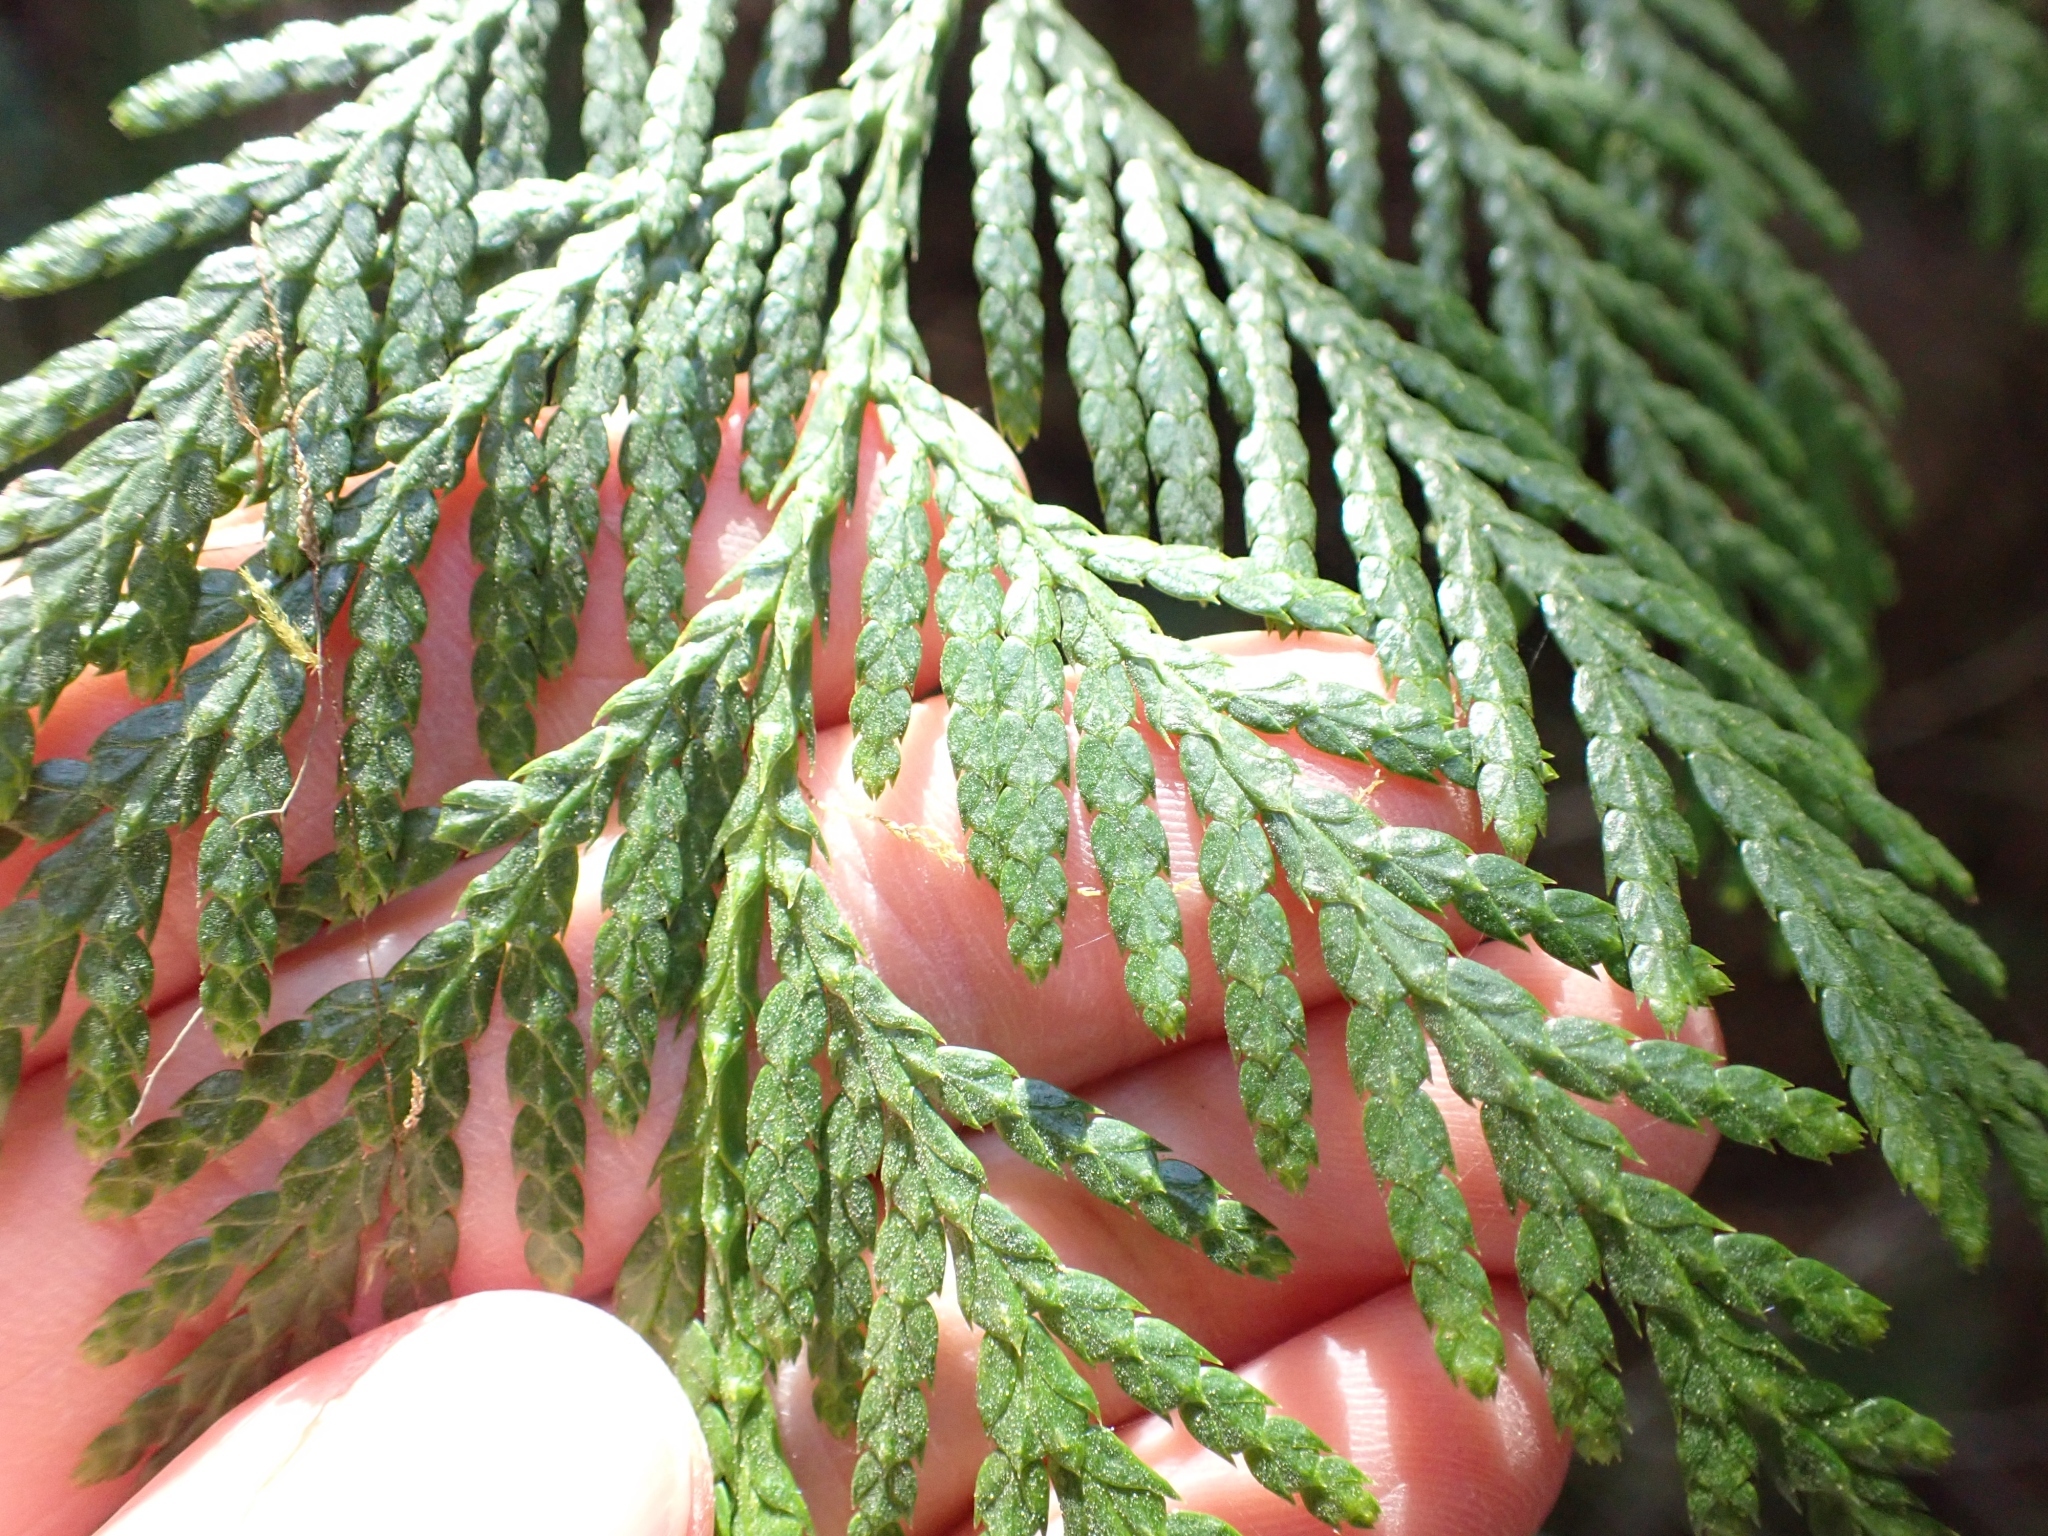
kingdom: Plantae
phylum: Tracheophyta
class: Pinopsida
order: Pinales
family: Cupressaceae
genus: Thuja
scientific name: Thuja plicata
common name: Western red-cedar
